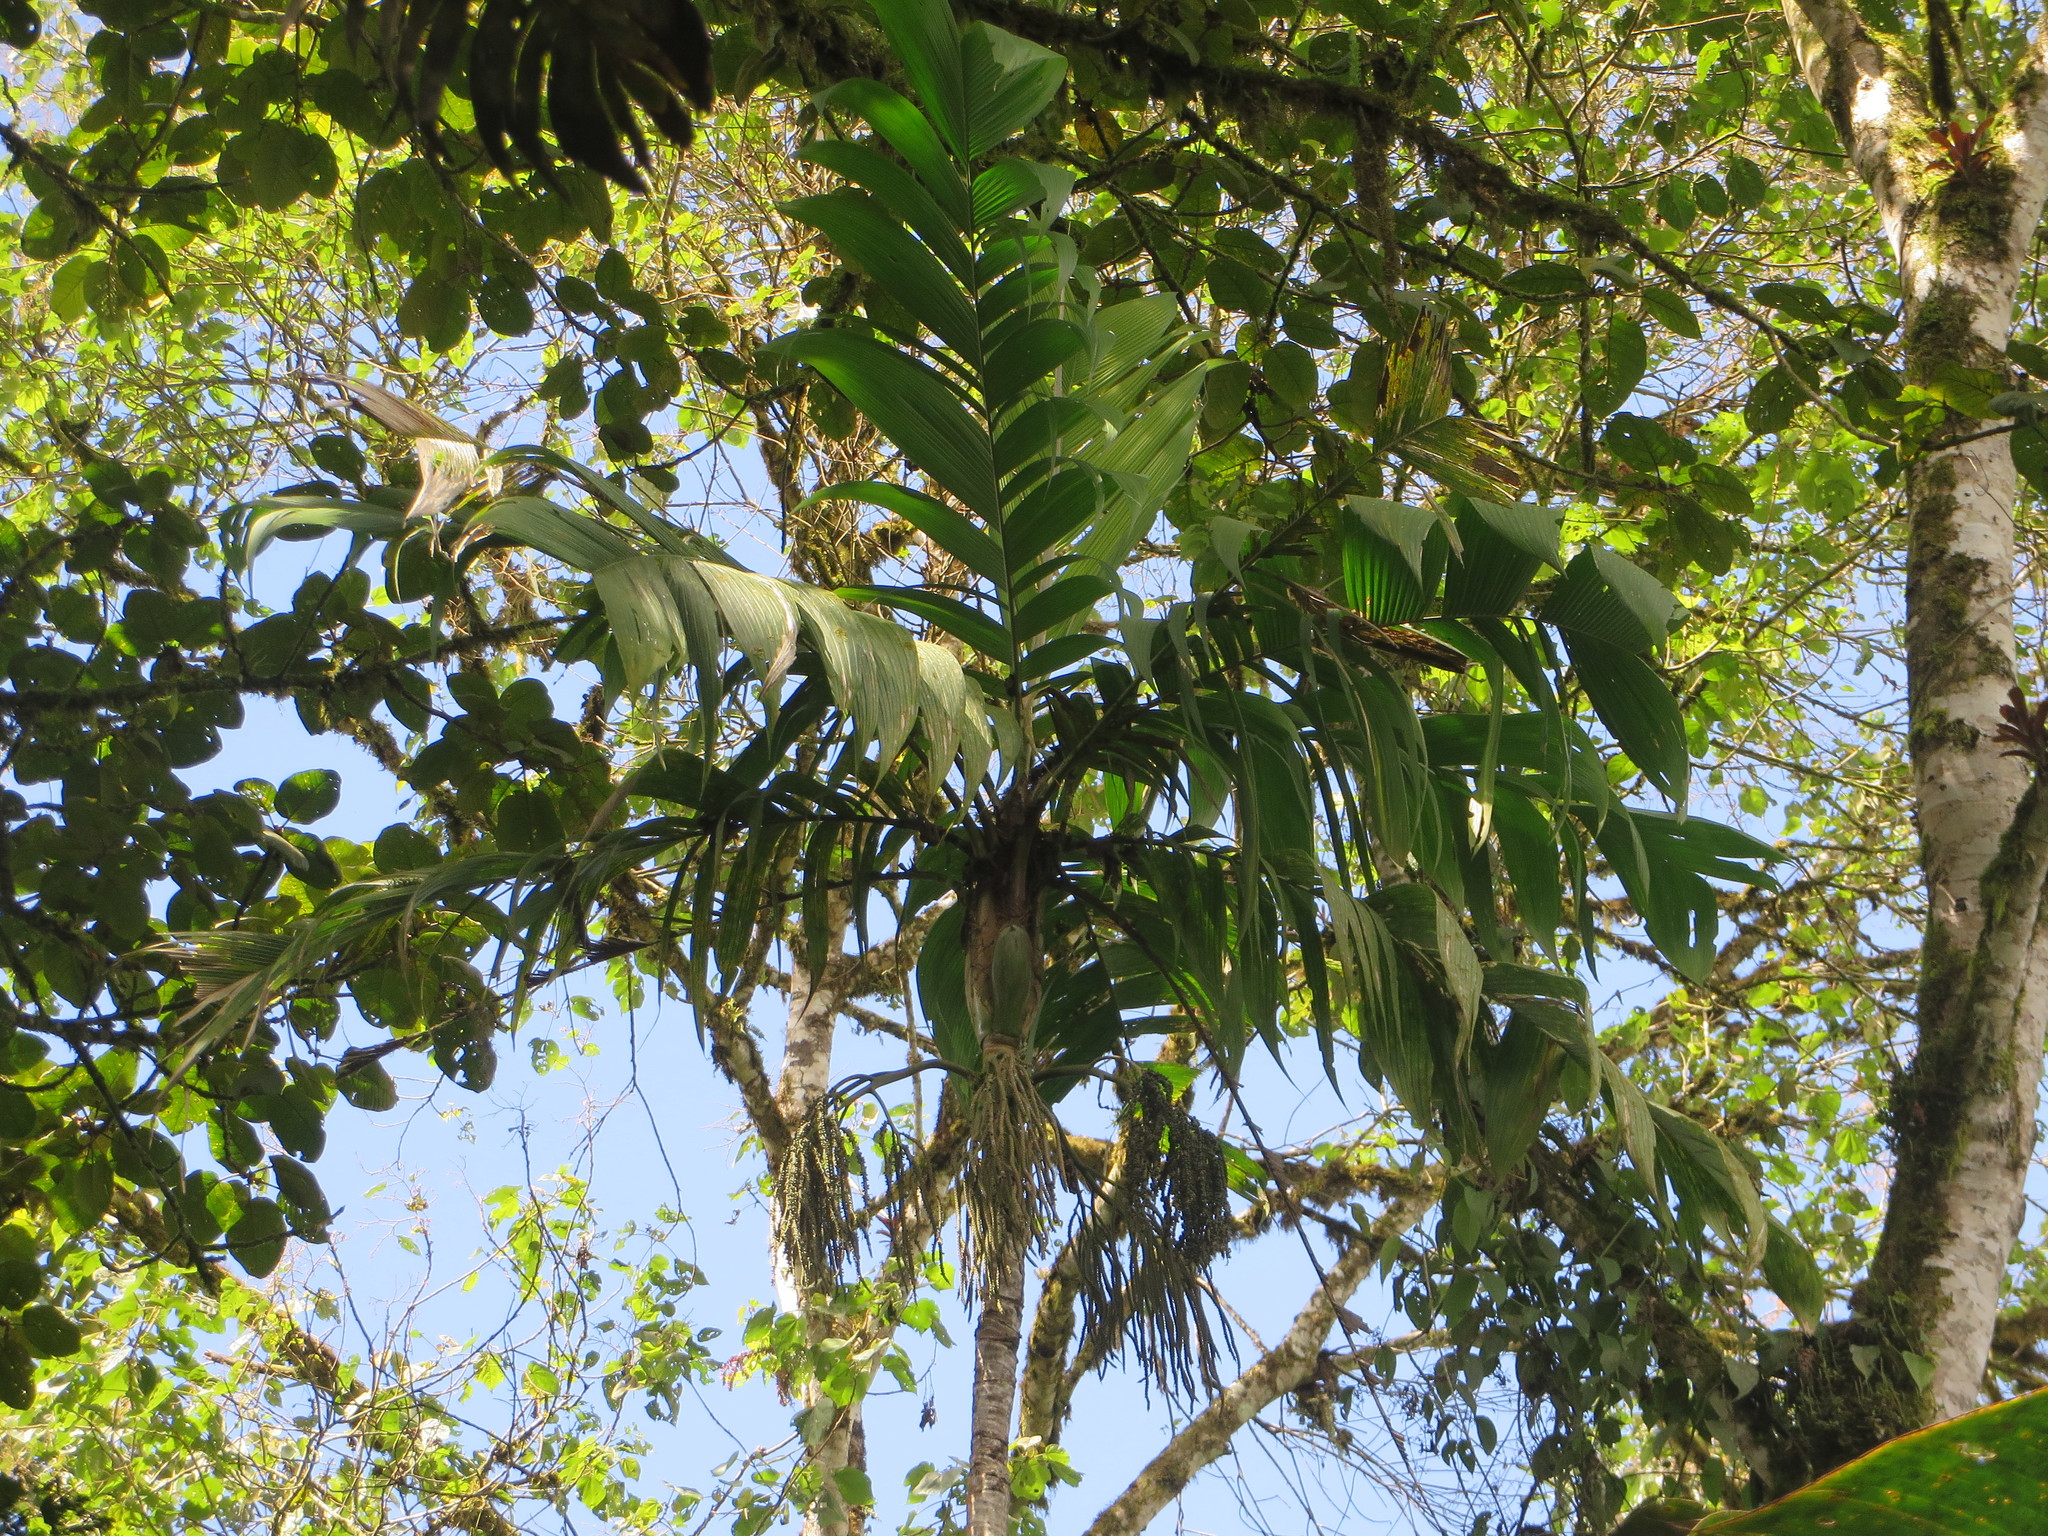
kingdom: Plantae
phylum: Tracheophyta
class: Liliopsida
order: Arecales
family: Arecaceae
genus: Geonoma
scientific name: Geonoma undata
